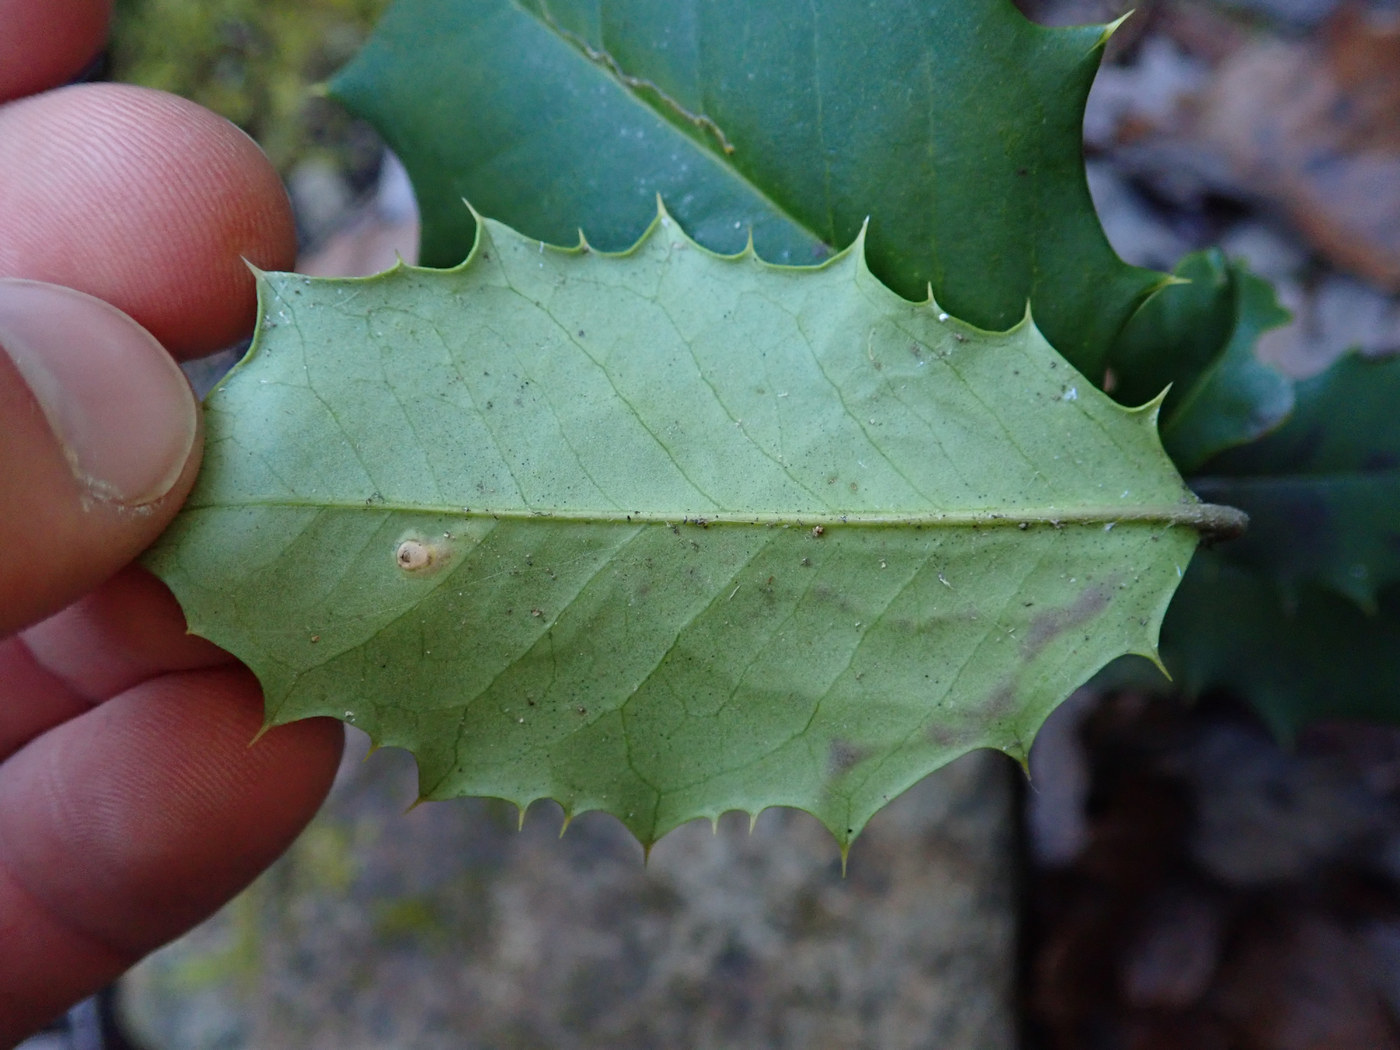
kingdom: Animalia
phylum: Arthropoda
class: Insecta
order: Diptera
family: Agromyzidae
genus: Phytomyza
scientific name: Phytomyza opacae
